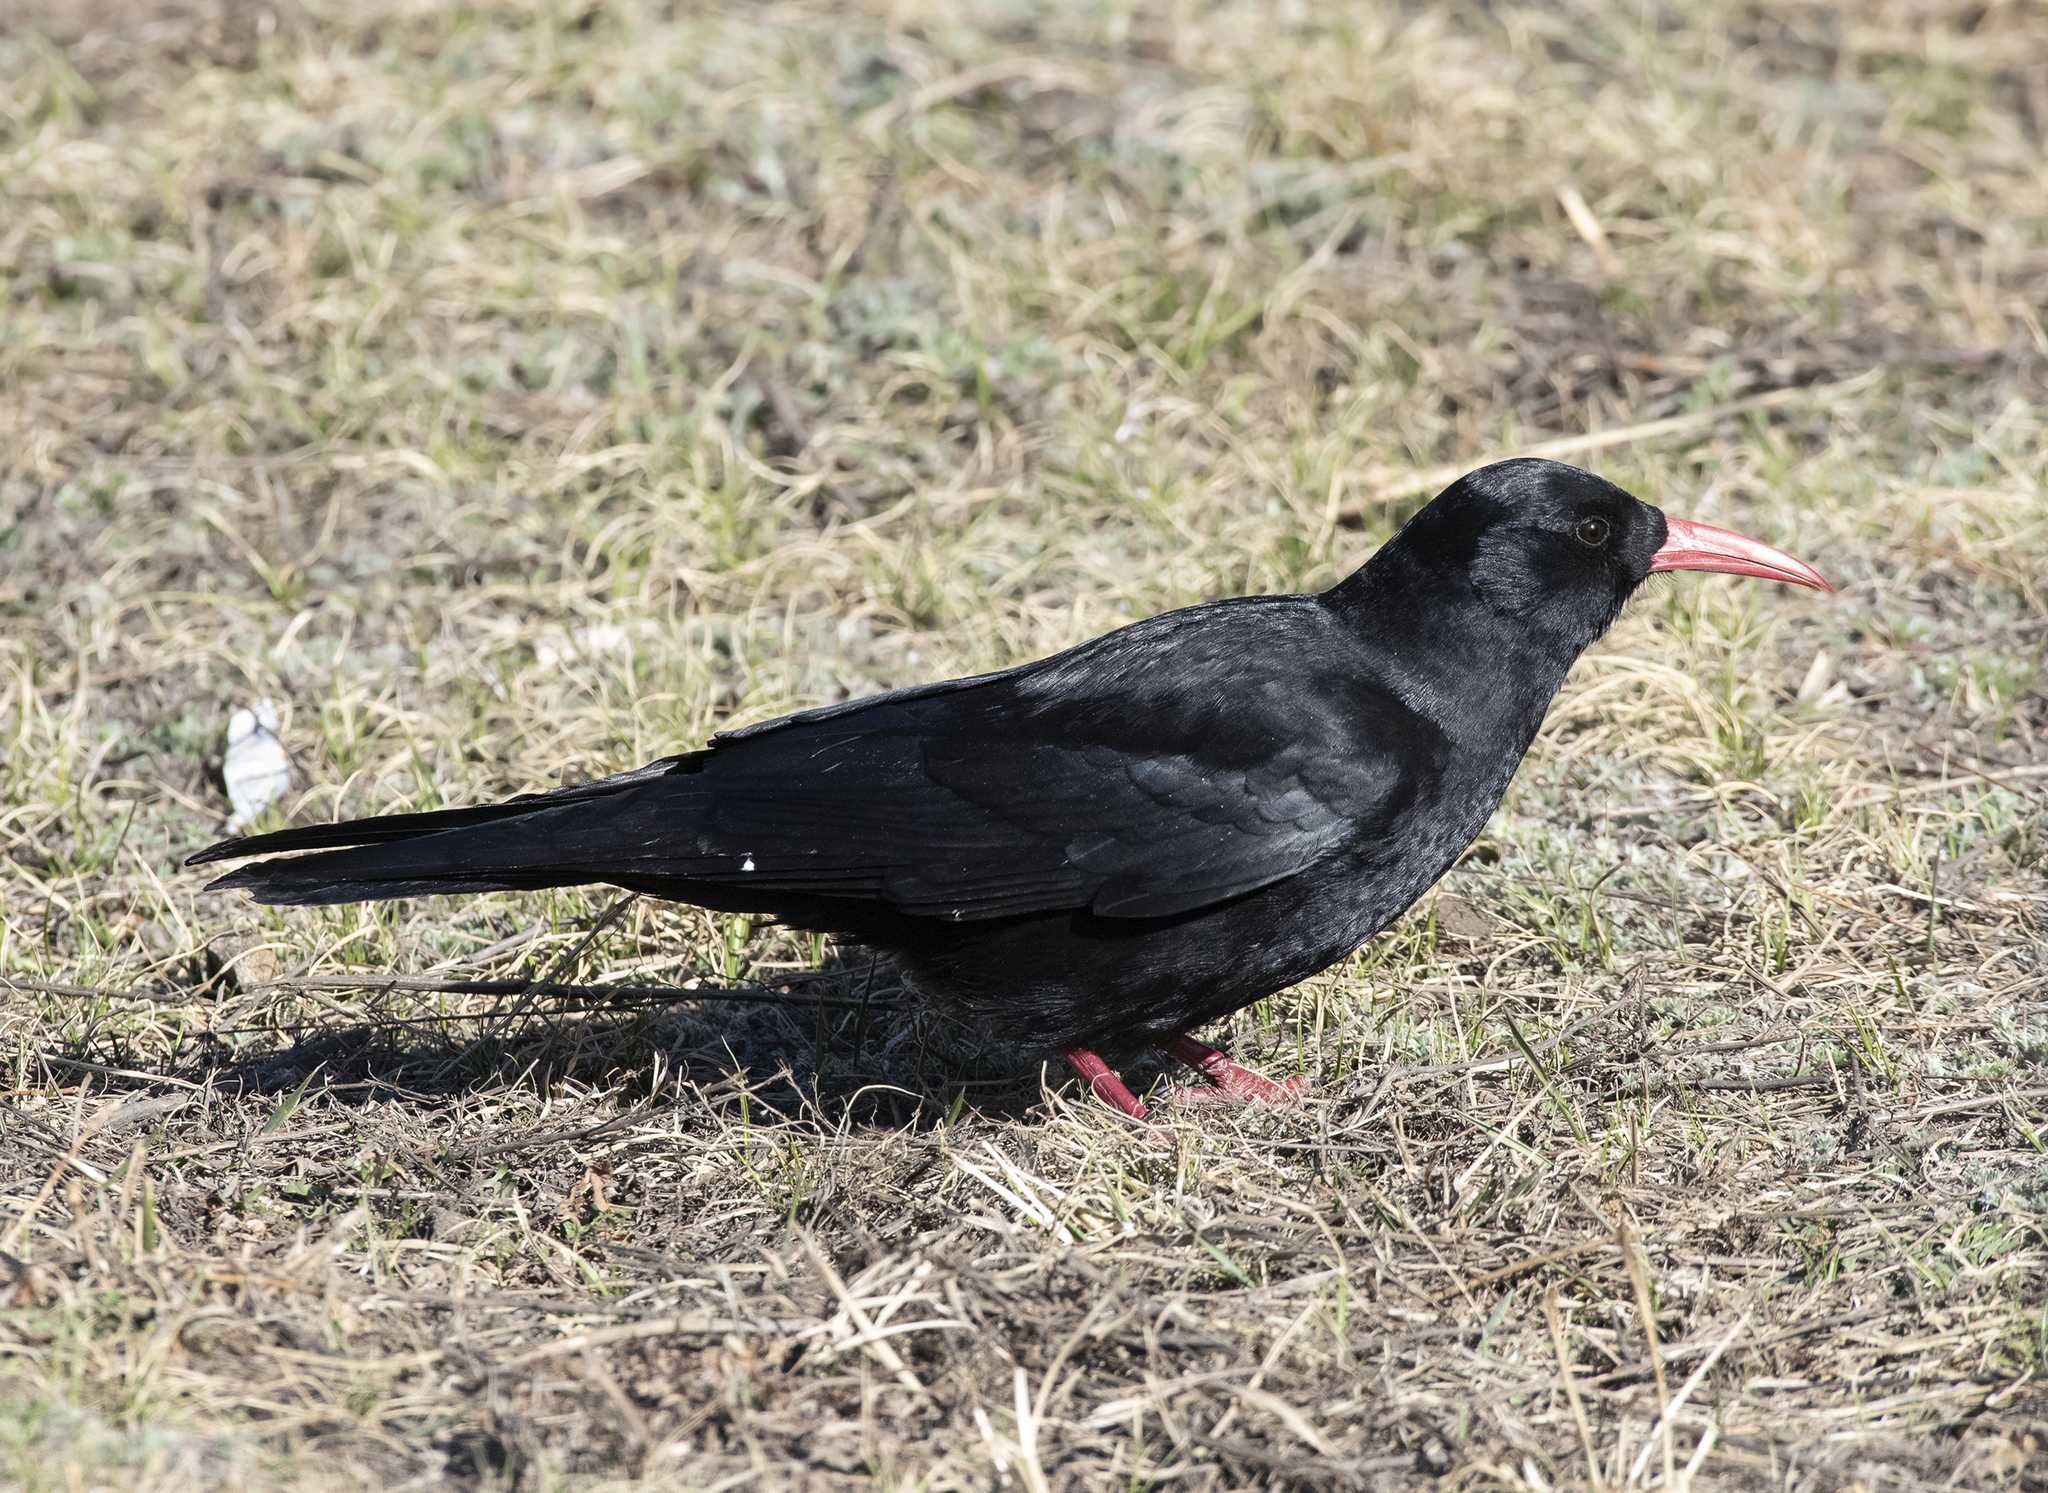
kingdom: Animalia
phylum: Chordata
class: Aves
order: Passeriformes
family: Corvidae
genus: Pyrrhocorax
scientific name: Pyrrhocorax pyrrhocorax
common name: Red-billed chough
